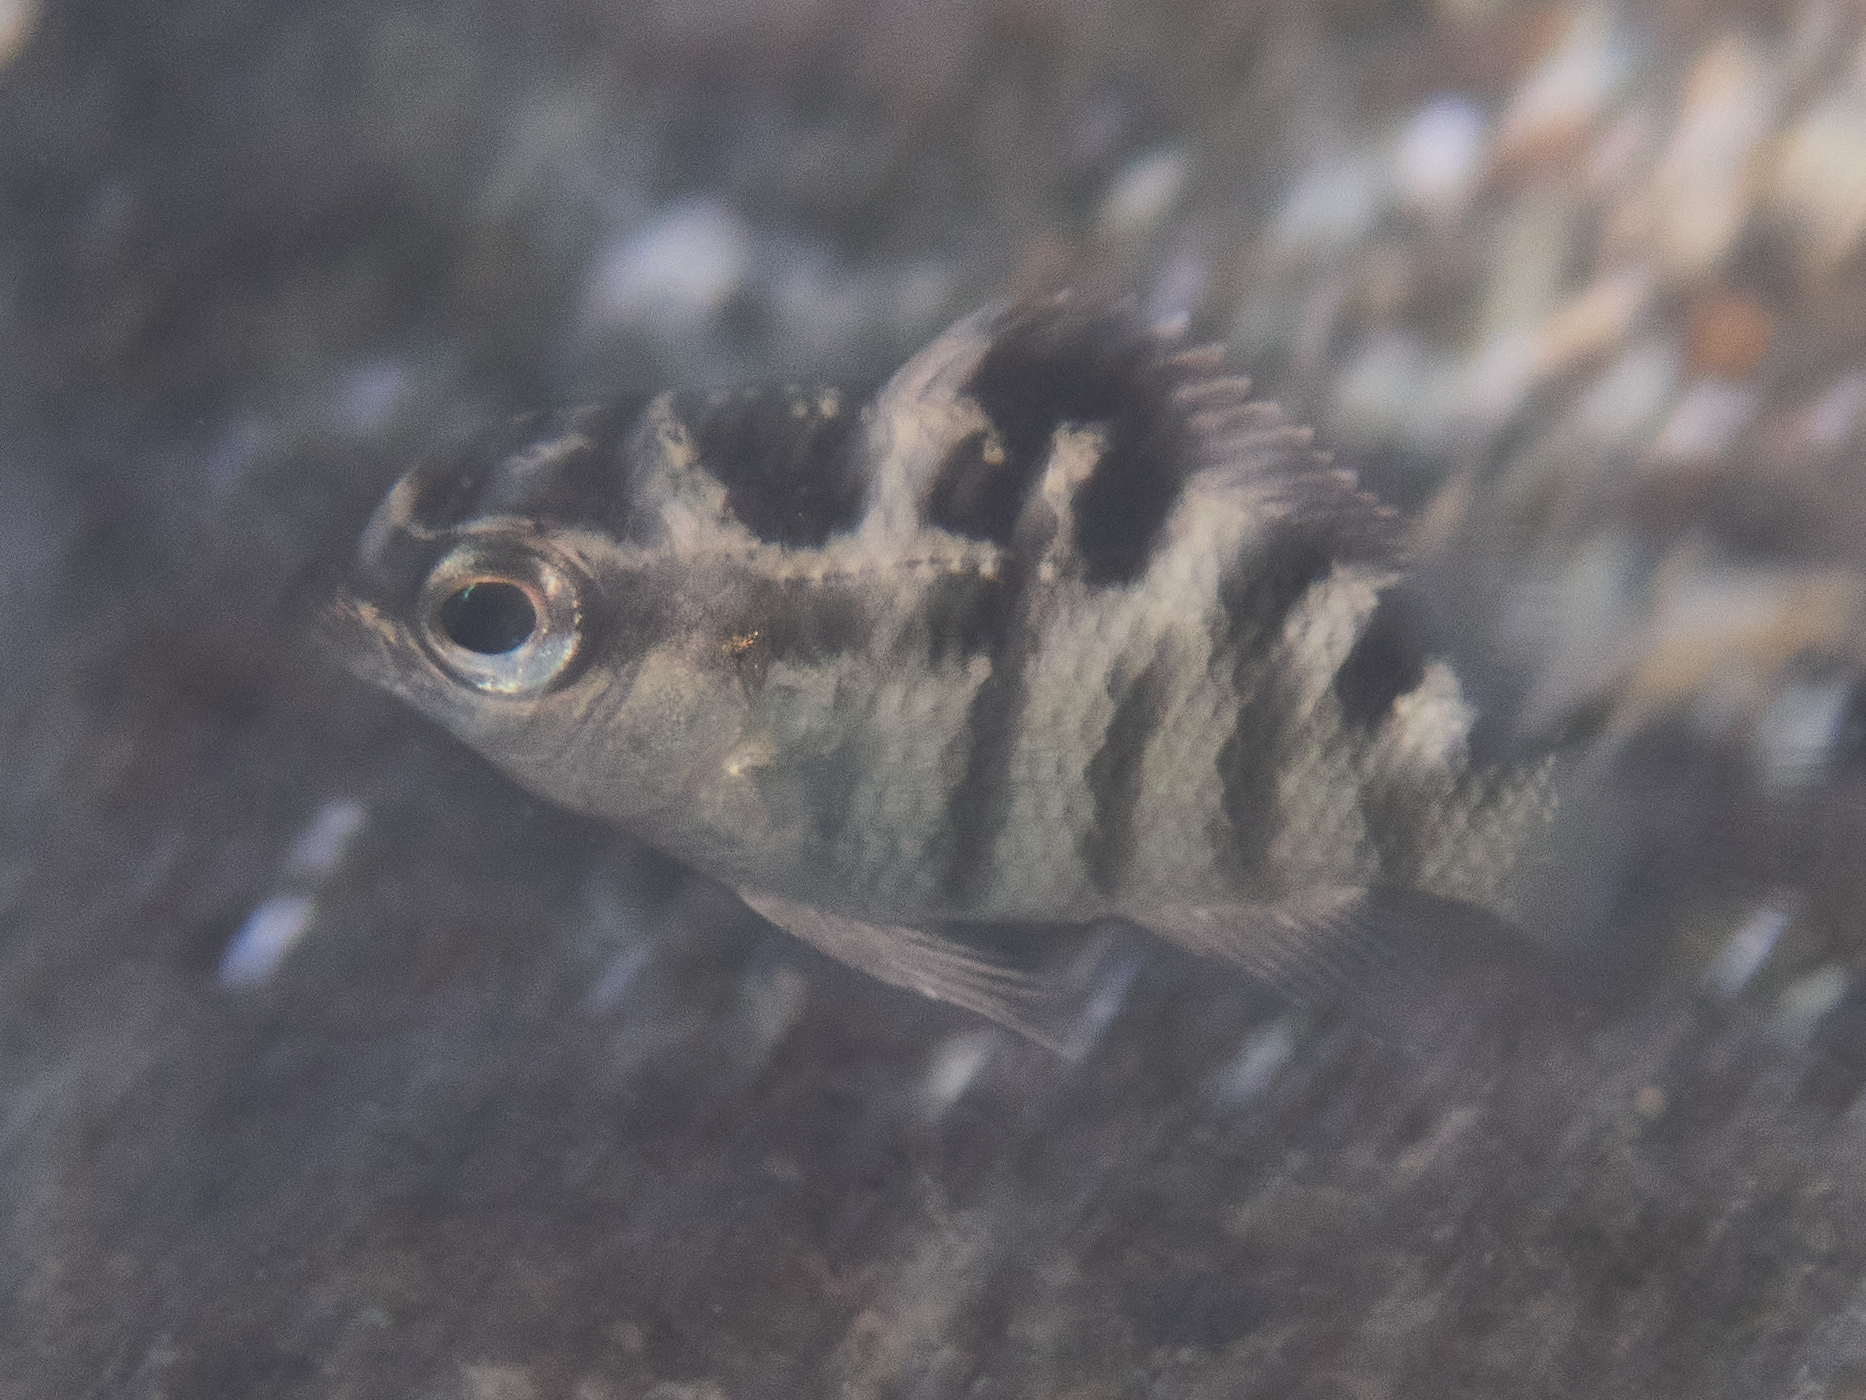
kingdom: Animalia
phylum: Chordata
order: Perciformes
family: Pomacentridae
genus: Abudefduf
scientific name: Abudefduf concolor
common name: Dusky seargent
